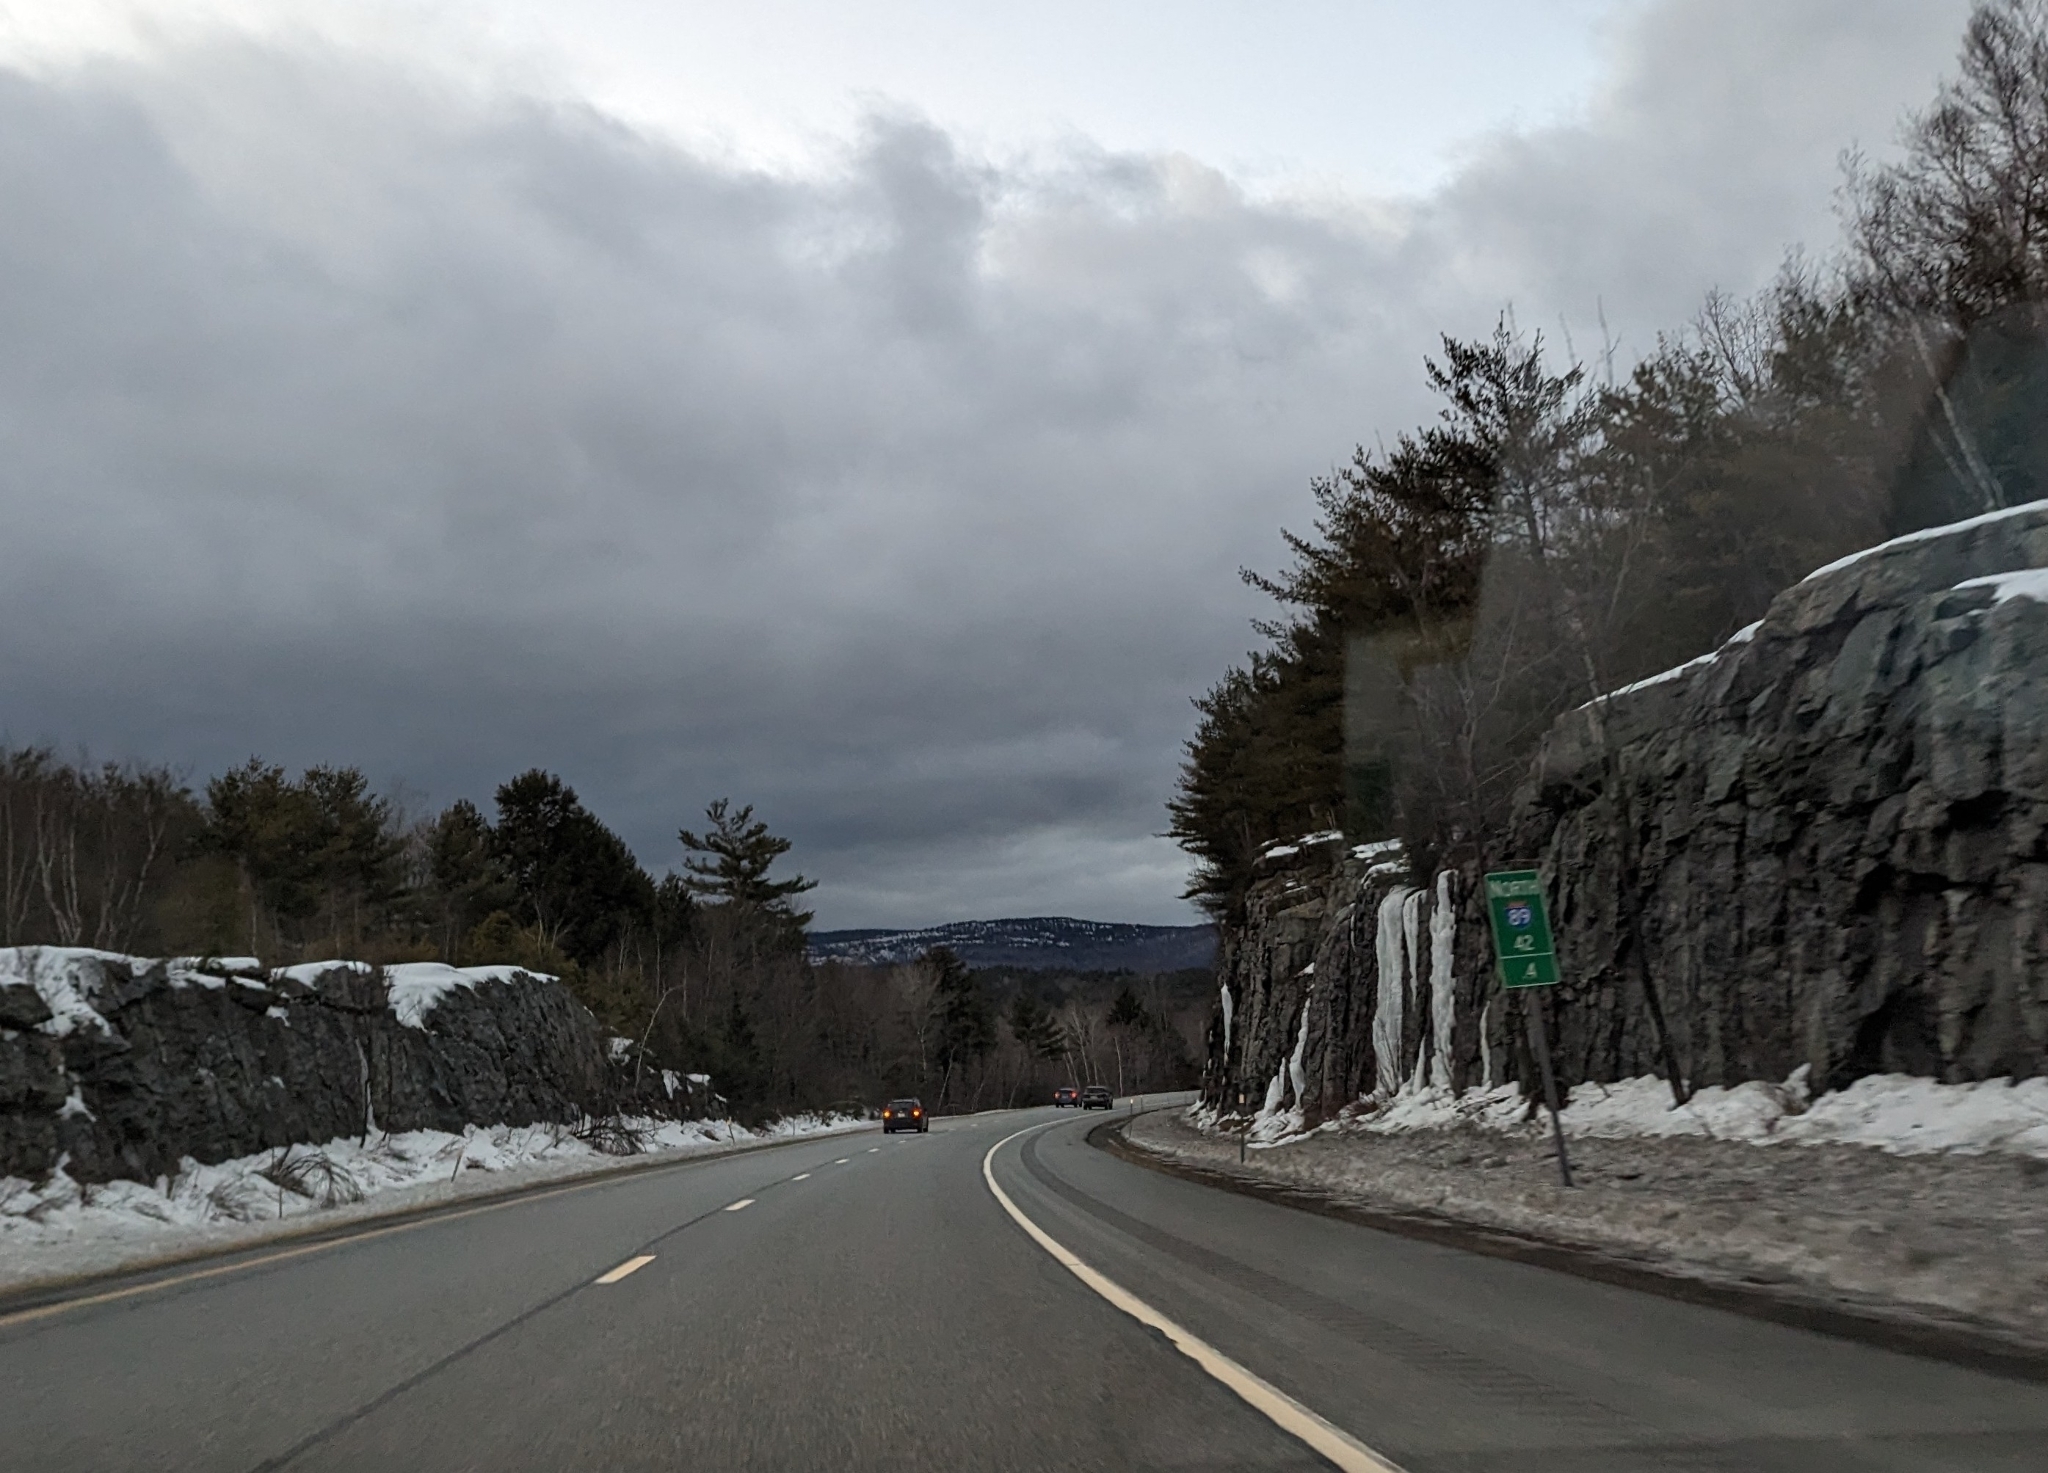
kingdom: Plantae
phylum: Tracheophyta
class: Pinopsida
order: Pinales
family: Pinaceae
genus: Pinus
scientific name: Pinus strobus
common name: Weymouth pine
